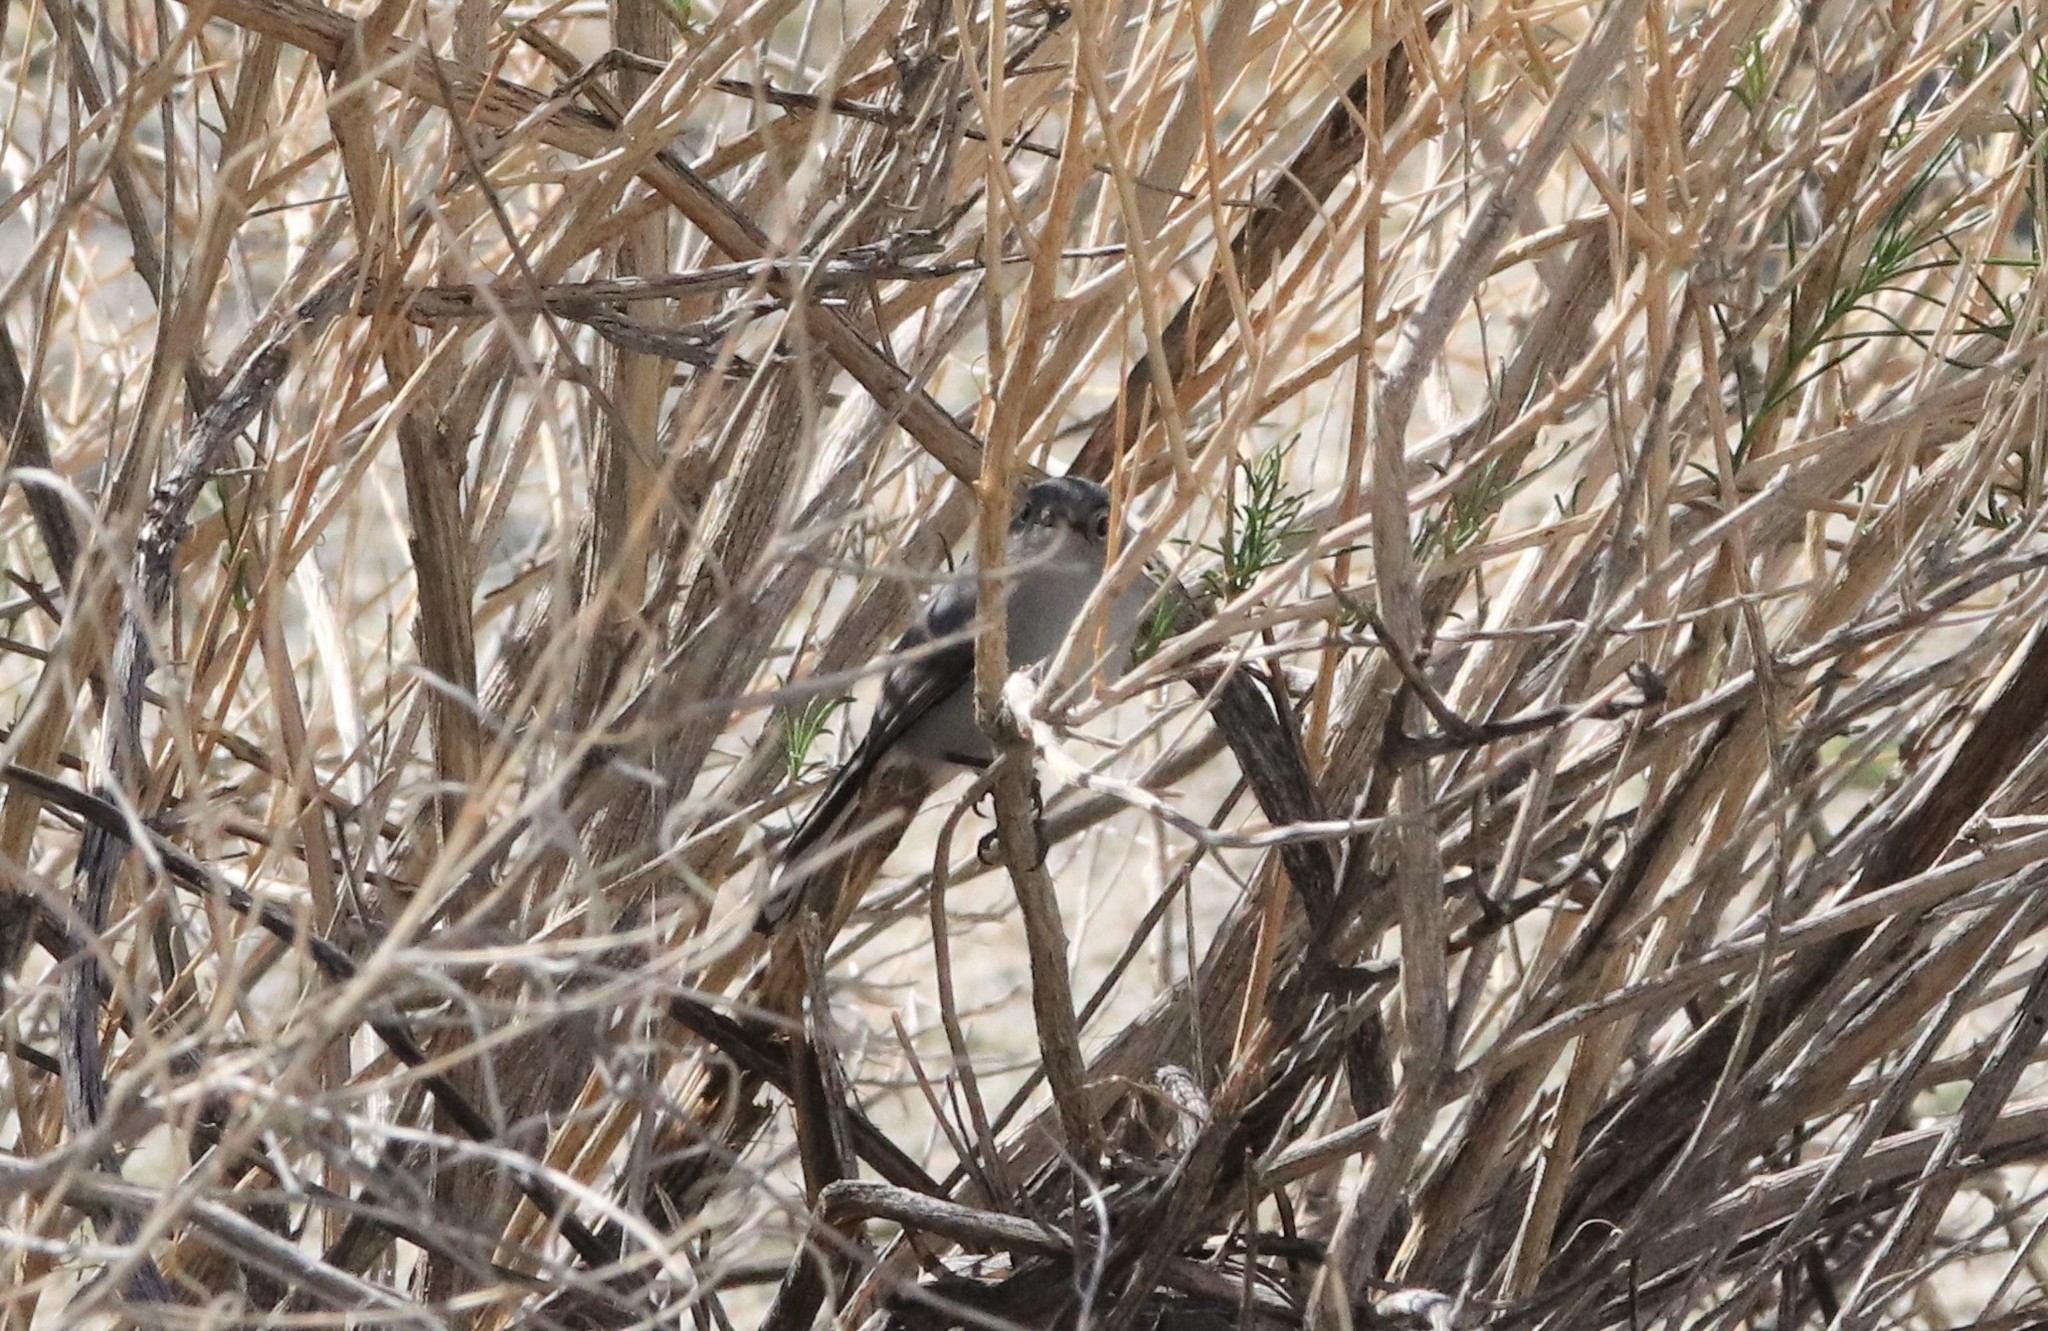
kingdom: Animalia
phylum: Chordata
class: Aves
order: Passeriformes
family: Polioptilidae
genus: Polioptila
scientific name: Polioptila caerulea
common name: Blue-gray gnatcatcher
